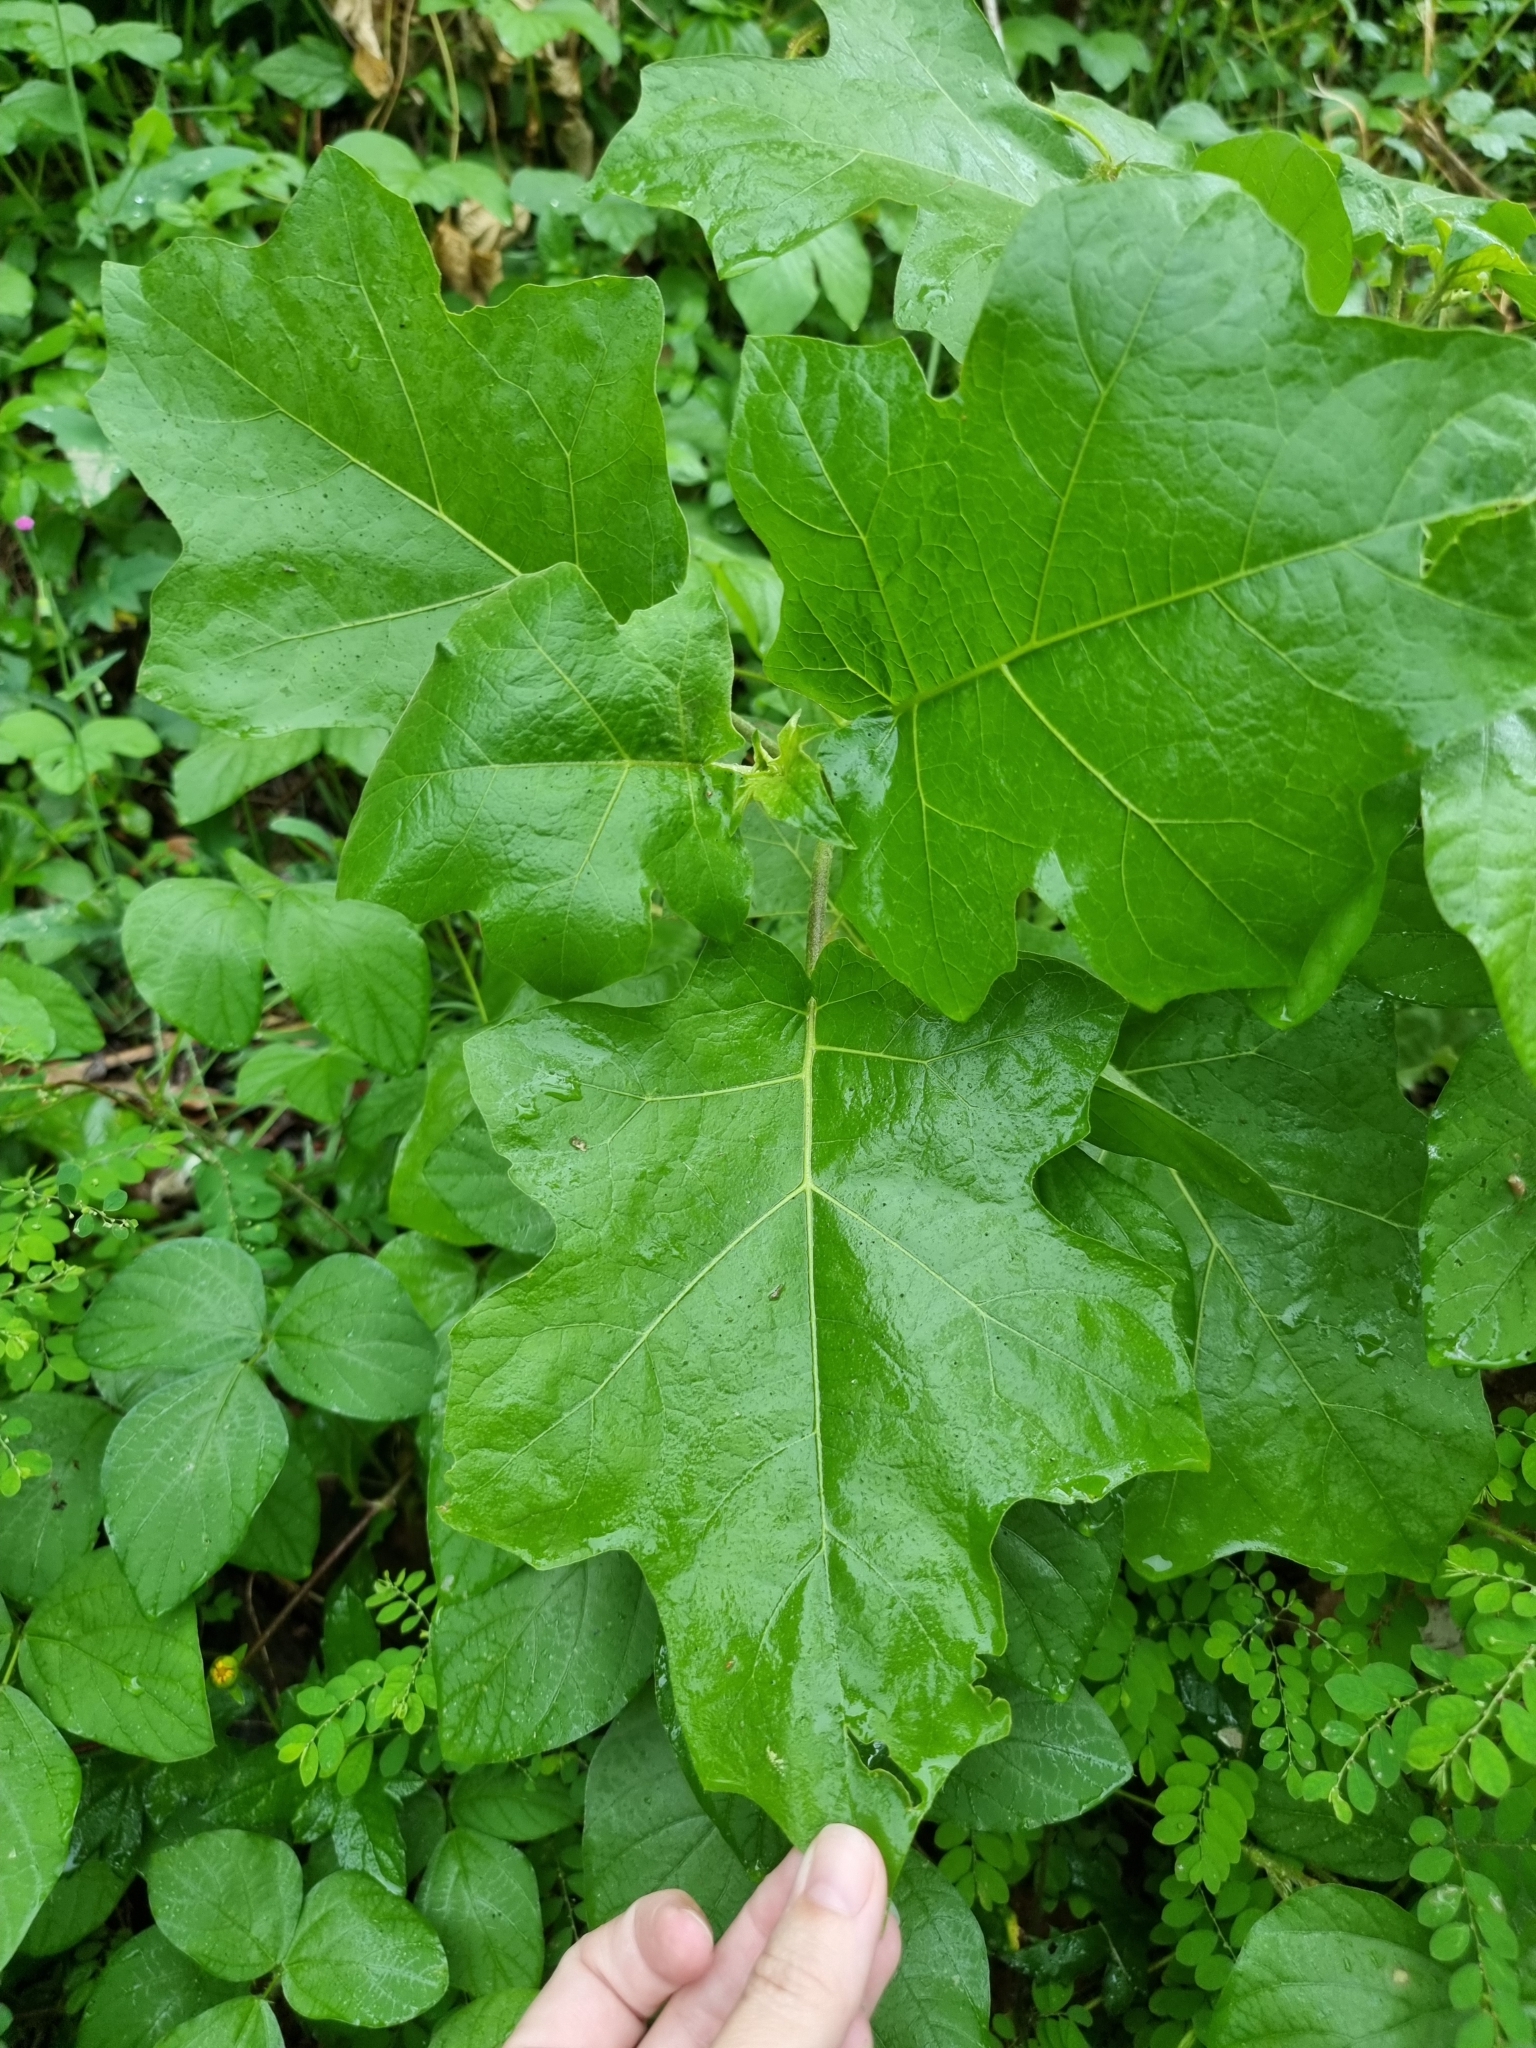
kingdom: Plantae
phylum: Tracheophyta
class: Magnoliopsida
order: Solanales
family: Solanaceae
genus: Solanum
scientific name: Solanum torvum
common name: Turkey berry
